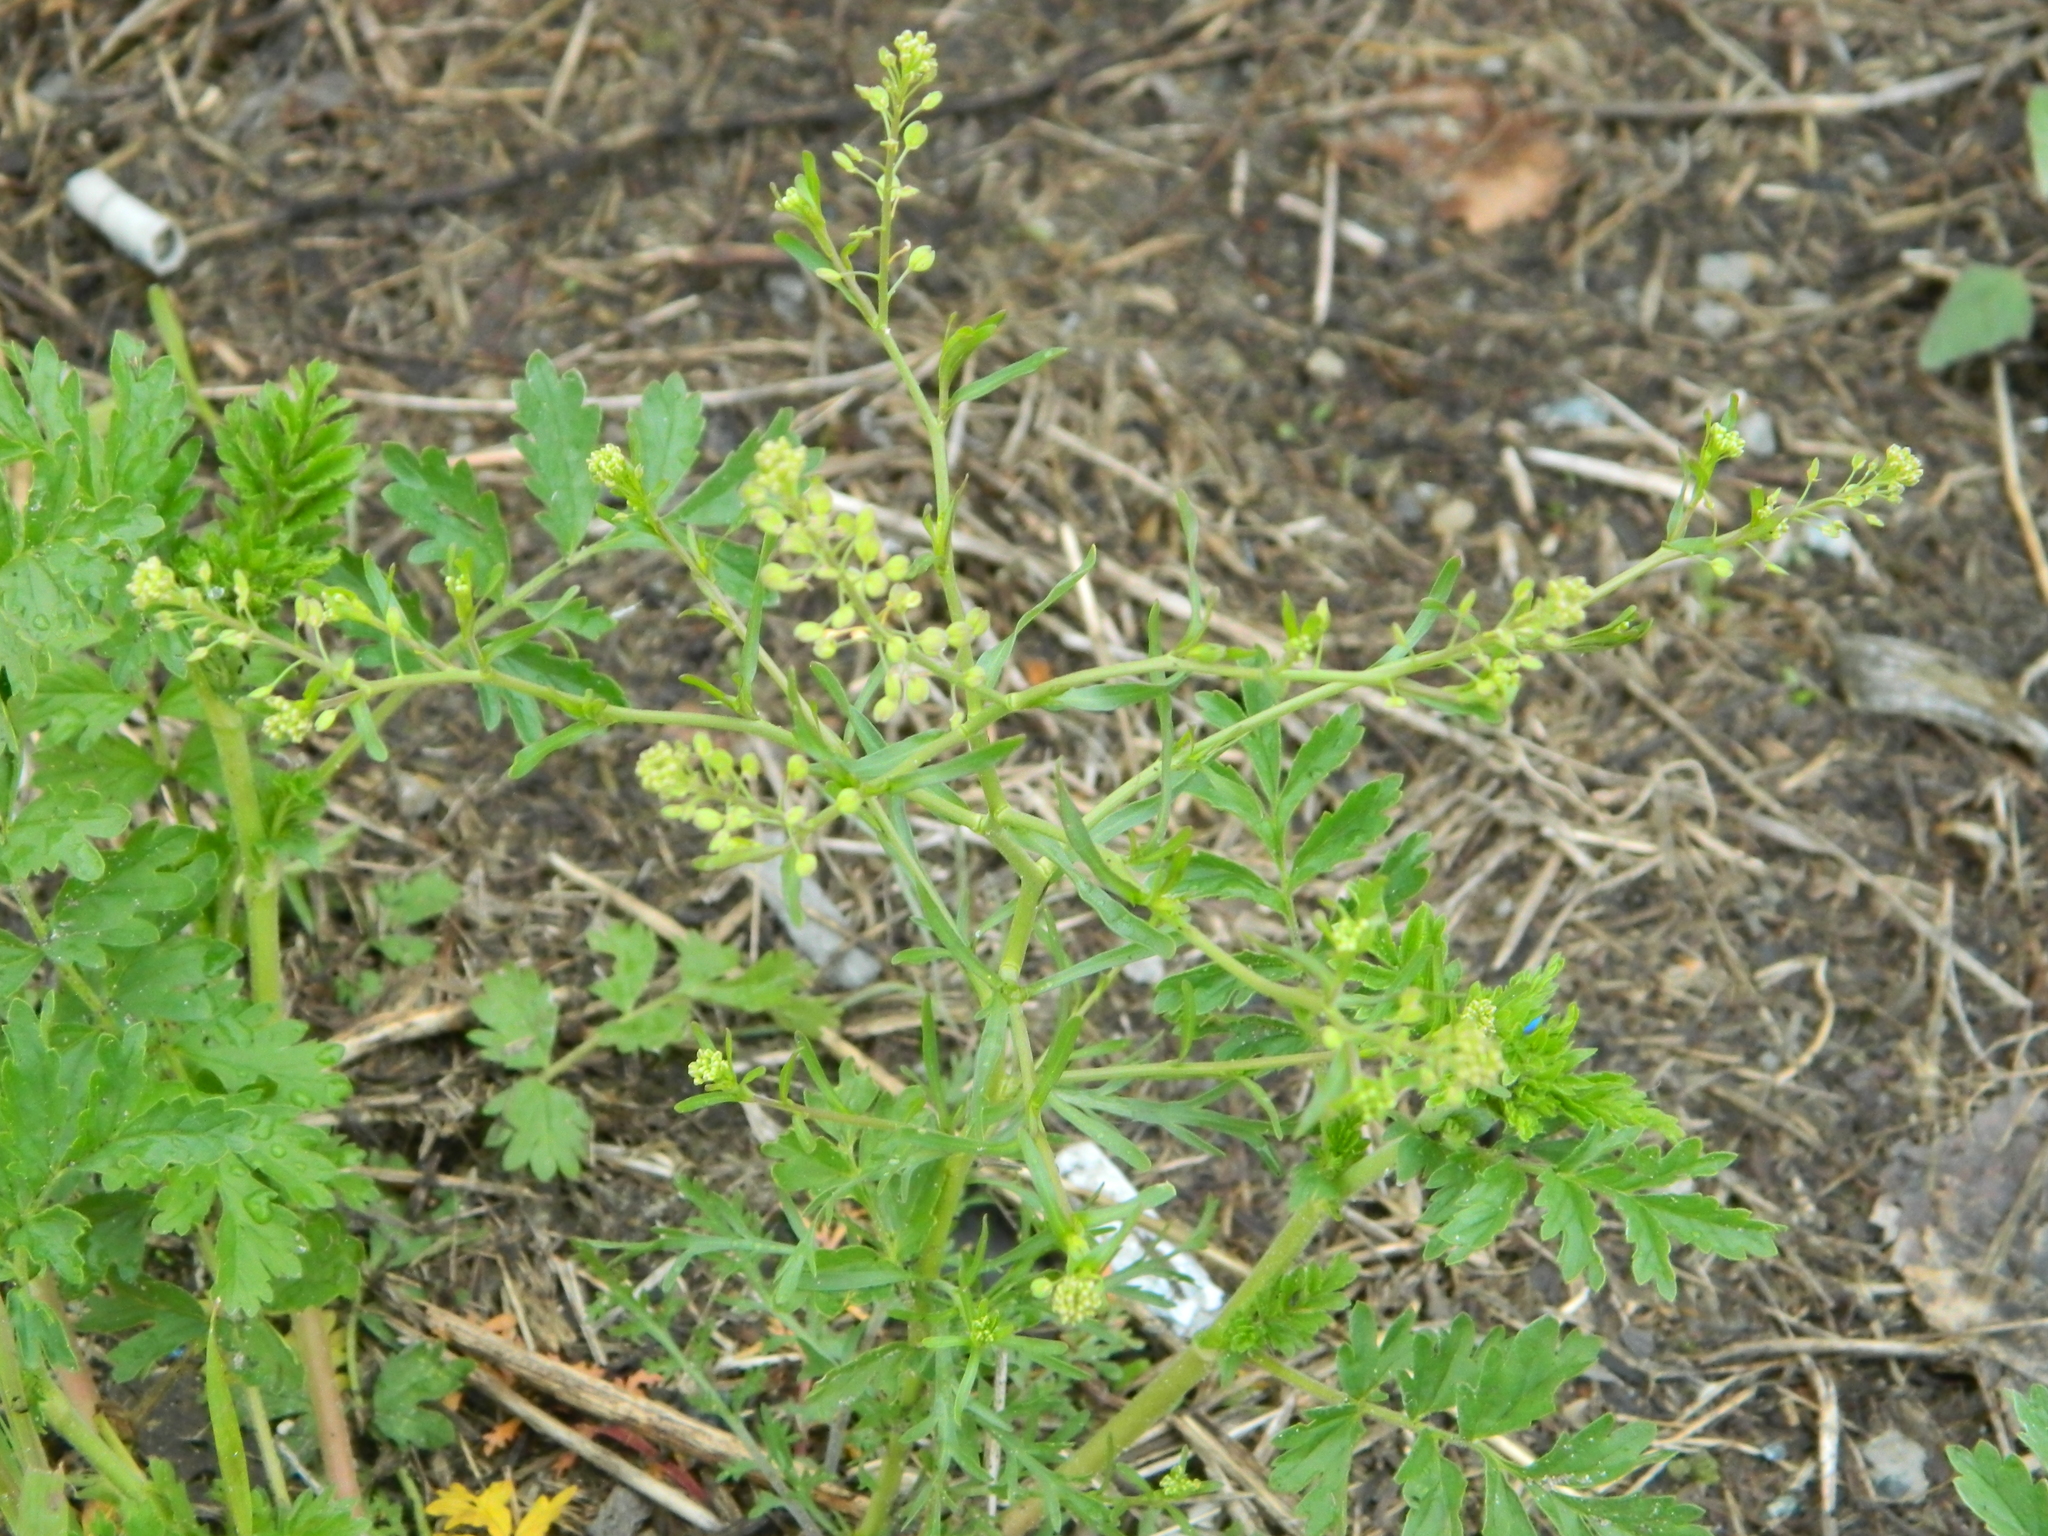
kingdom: Plantae
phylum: Tracheophyta
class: Magnoliopsida
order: Brassicales
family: Brassicaceae
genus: Lepidium
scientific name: Lepidium ruderale
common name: Narrow-leaved pepperwort
